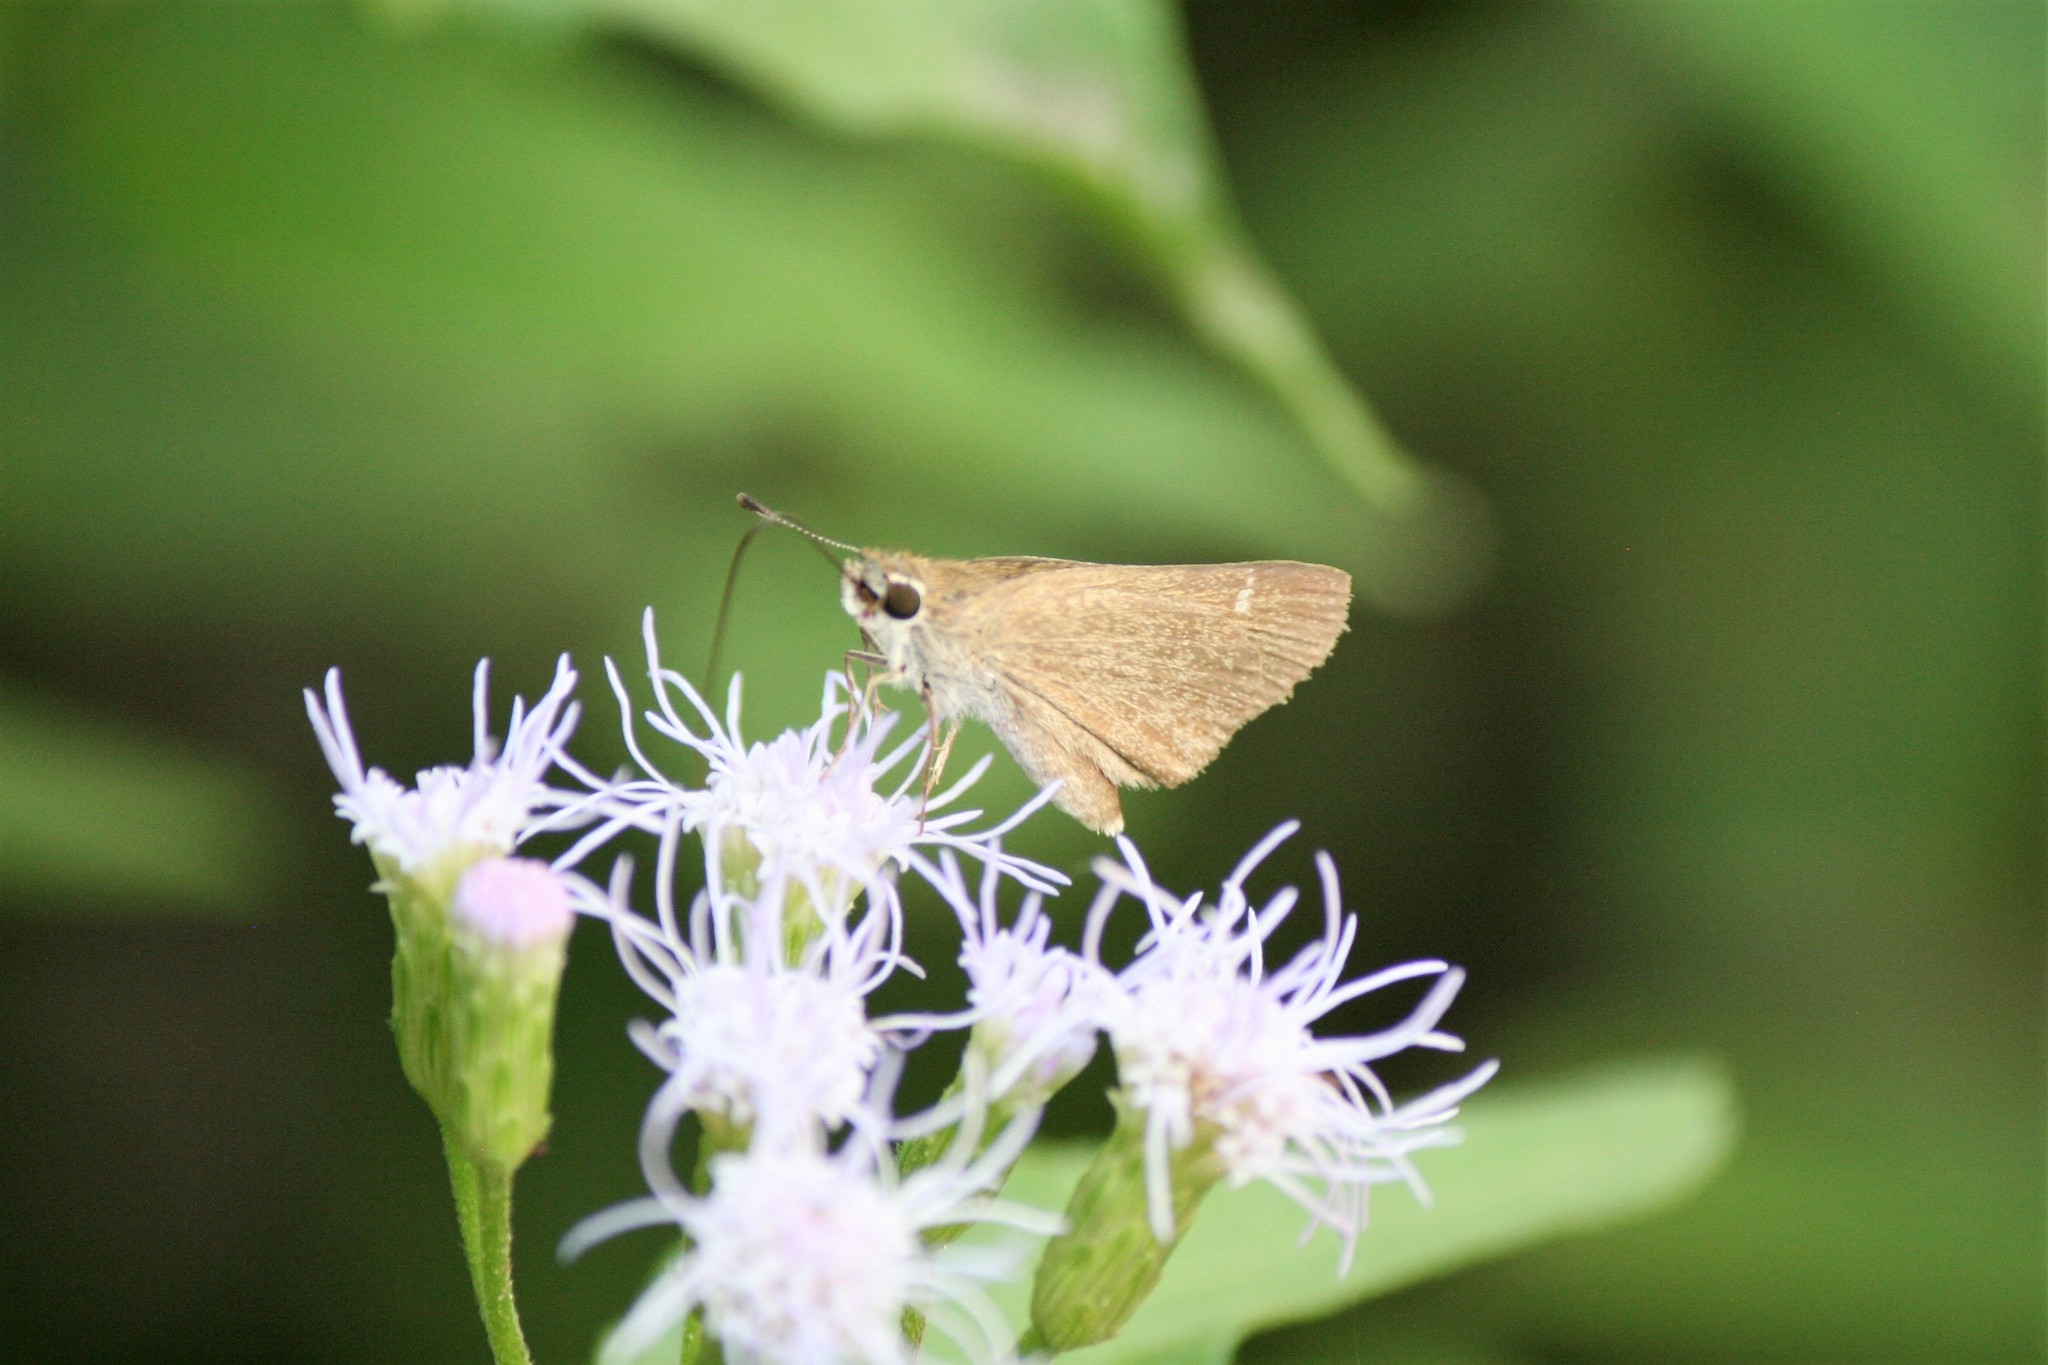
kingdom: Animalia
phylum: Arthropoda
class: Insecta
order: Lepidoptera
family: Hesperiidae
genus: Lerodea
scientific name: Lerodea eufala
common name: Eufala skipper
